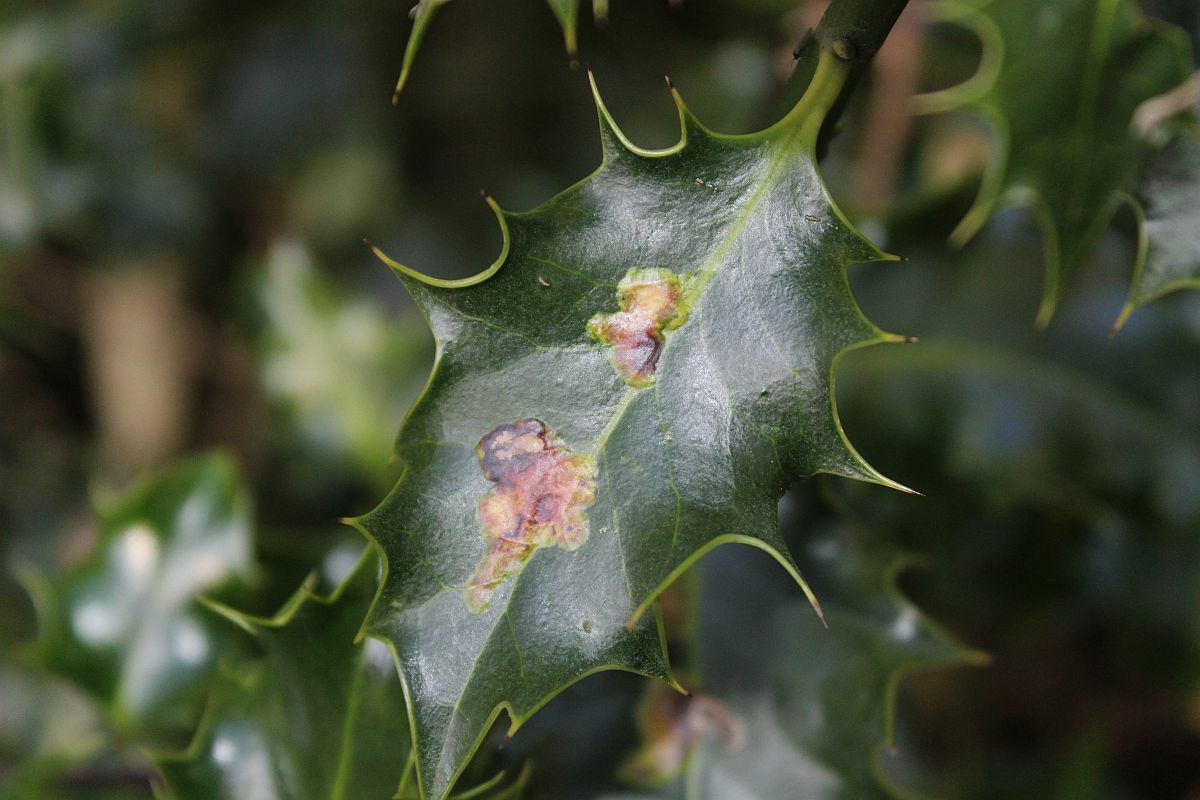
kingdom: Animalia
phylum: Arthropoda
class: Insecta
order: Diptera
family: Agromyzidae
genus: Phytomyza
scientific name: Phytomyza ilicis
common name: Holly leafminer
